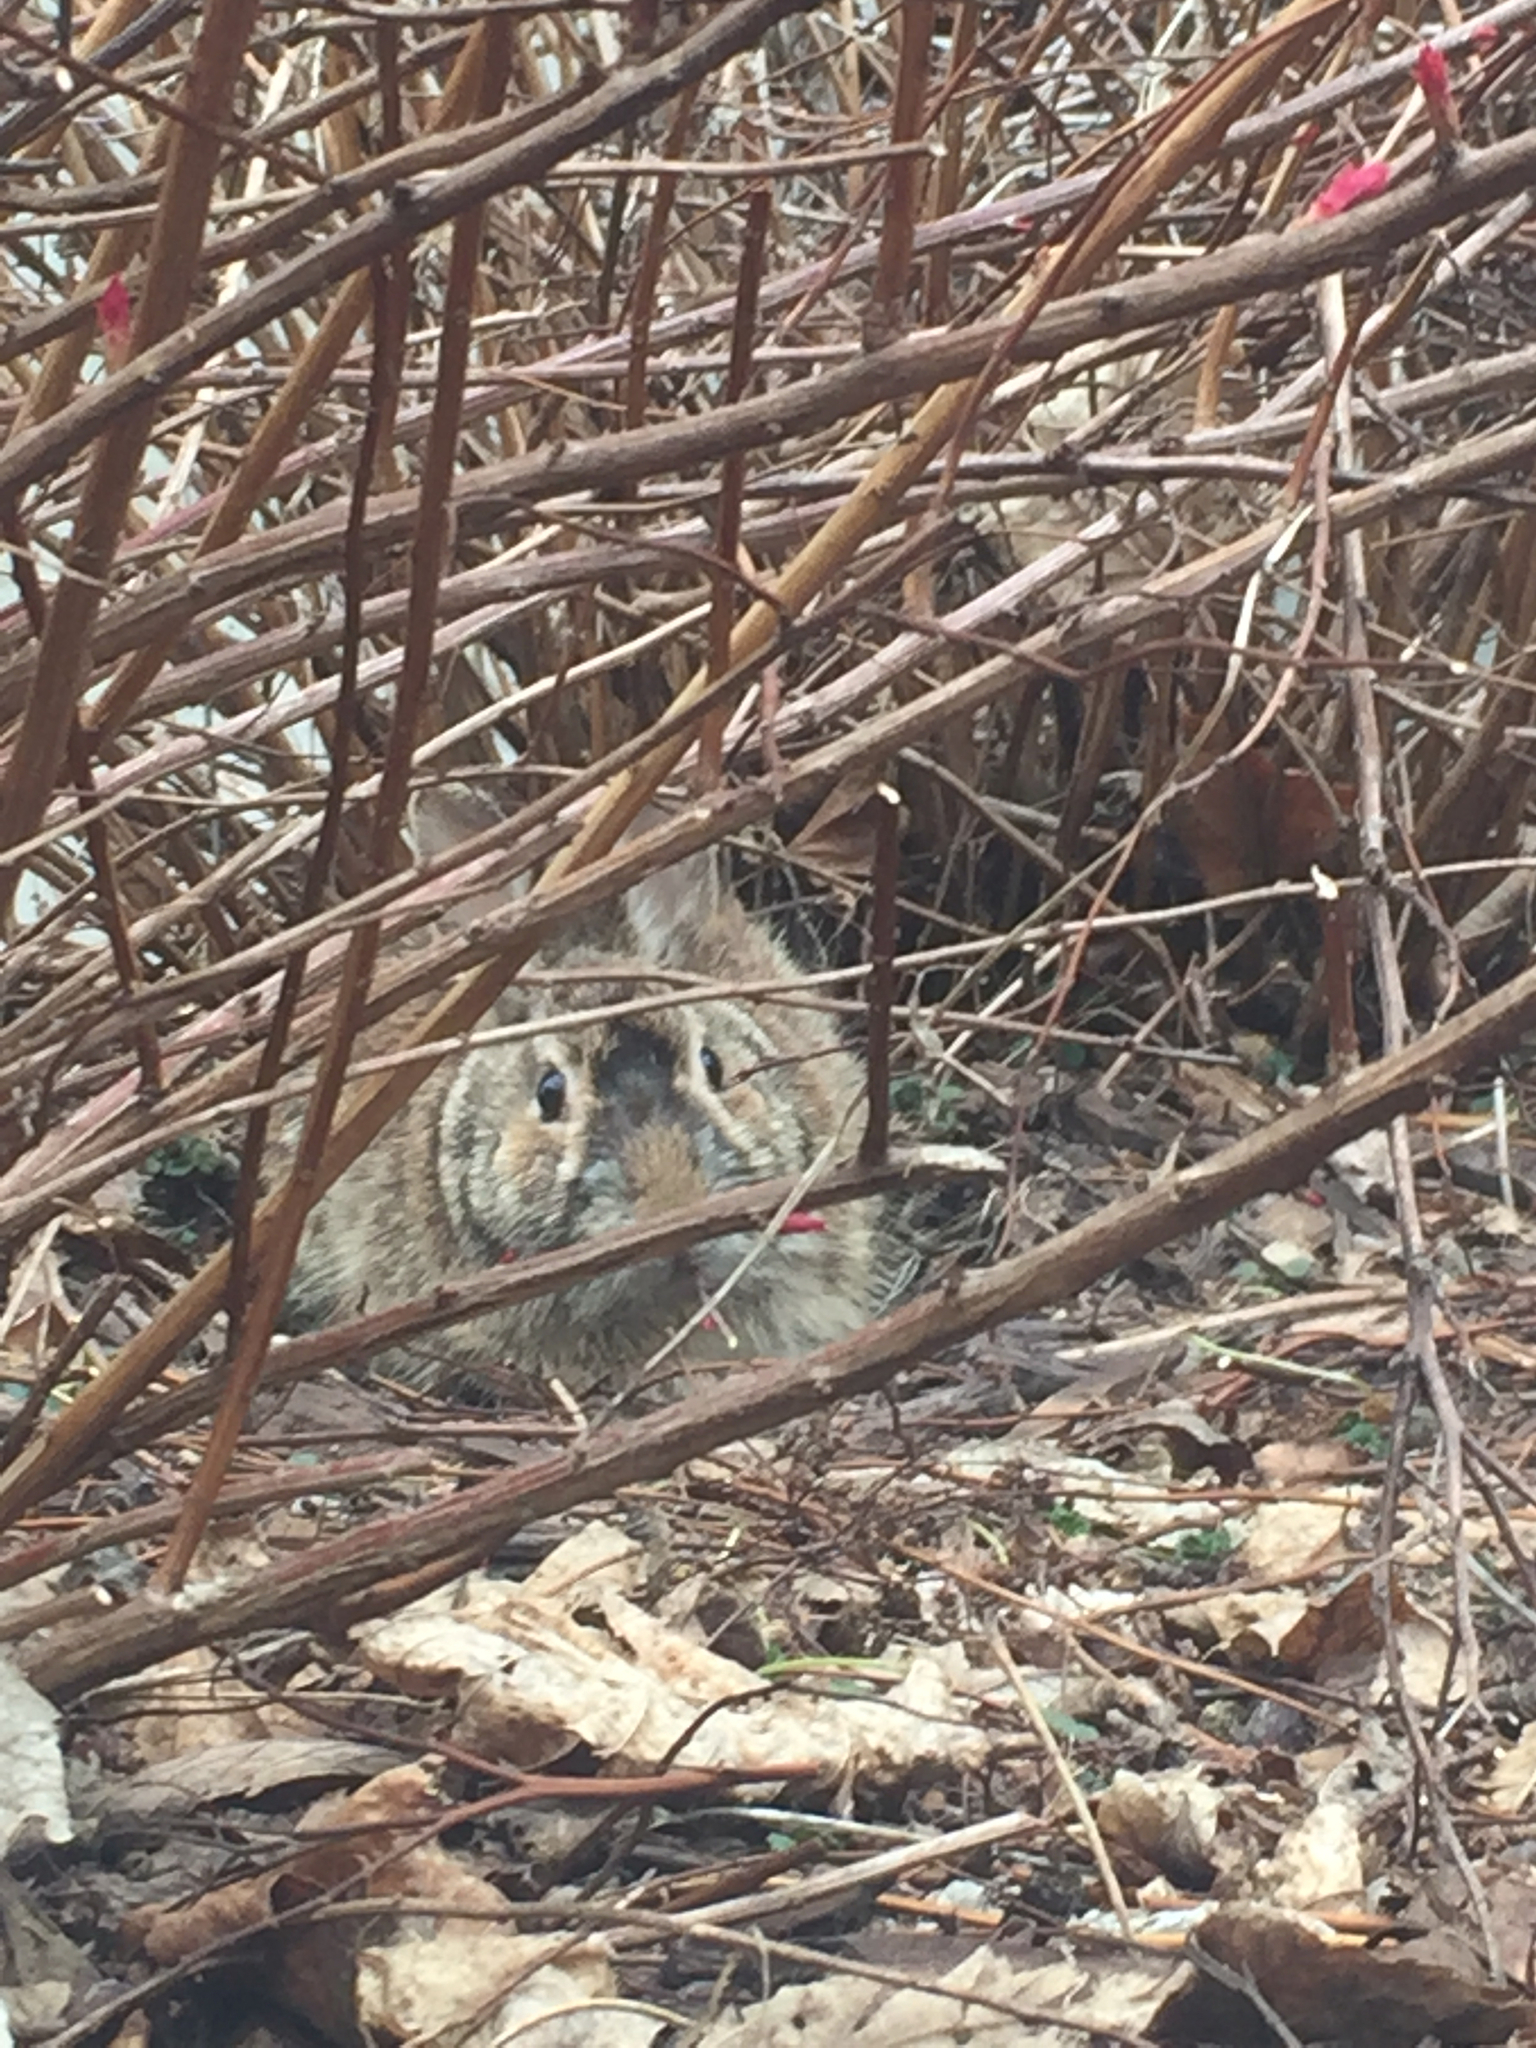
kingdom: Animalia
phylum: Chordata
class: Mammalia
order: Lagomorpha
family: Leporidae
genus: Sylvilagus
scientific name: Sylvilagus floridanus
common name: Eastern cottontail
